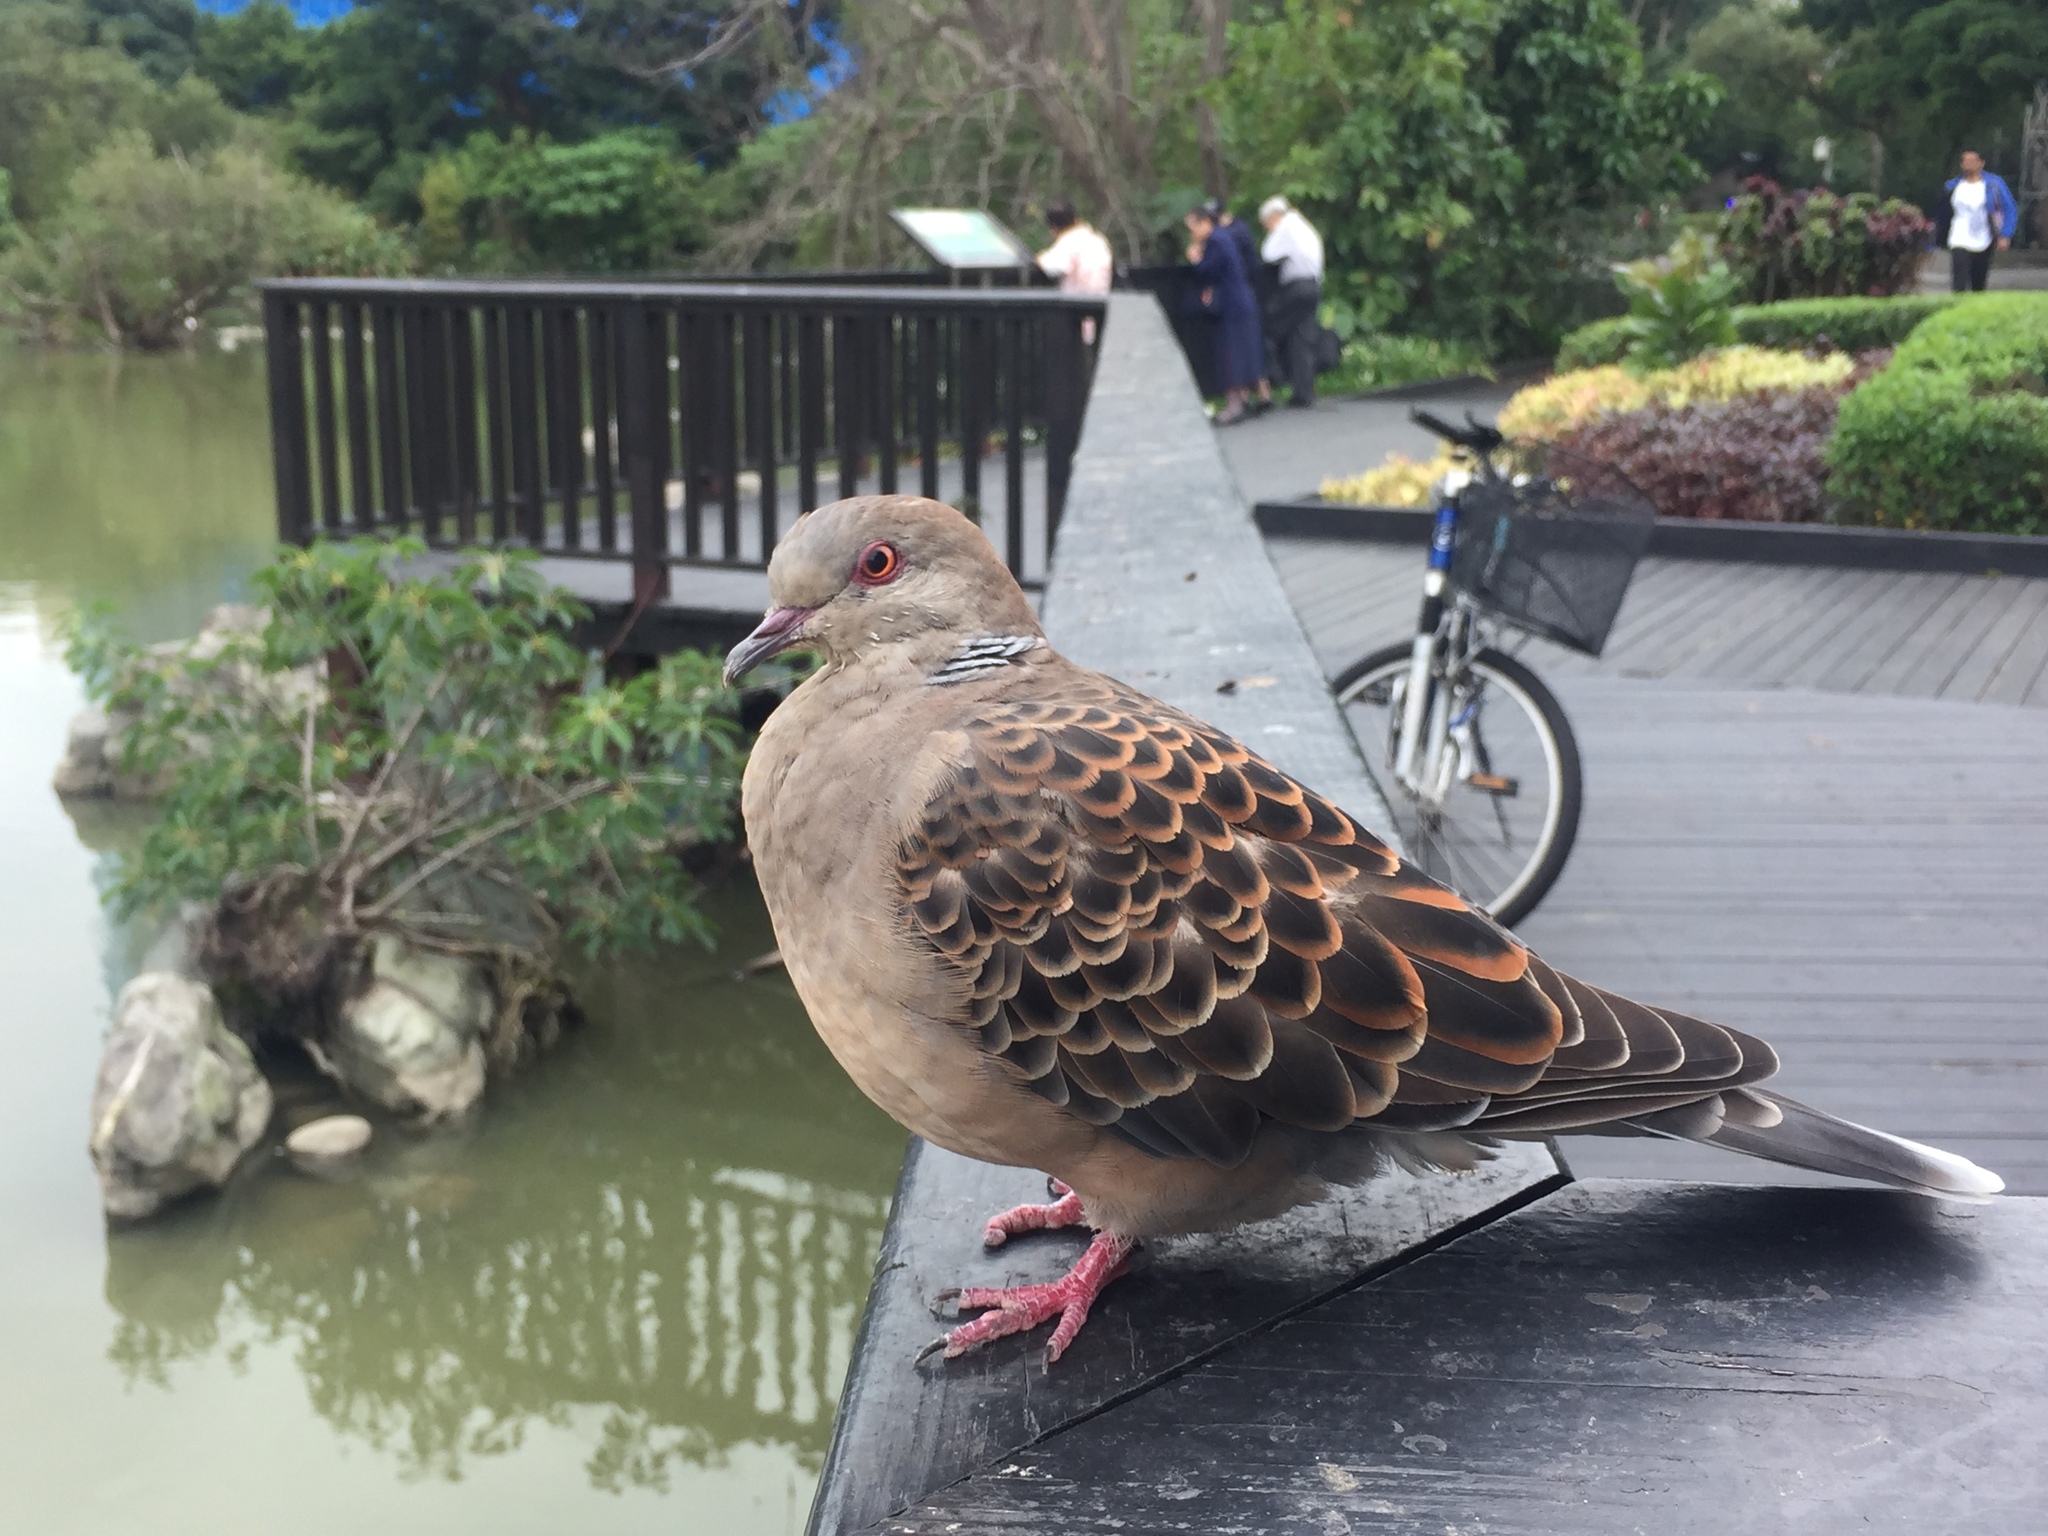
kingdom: Animalia
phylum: Chordata
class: Aves
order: Columbiformes
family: Columbidae
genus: Streptopelia
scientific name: Streptopelia orientalis
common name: Oriental turtle dove
